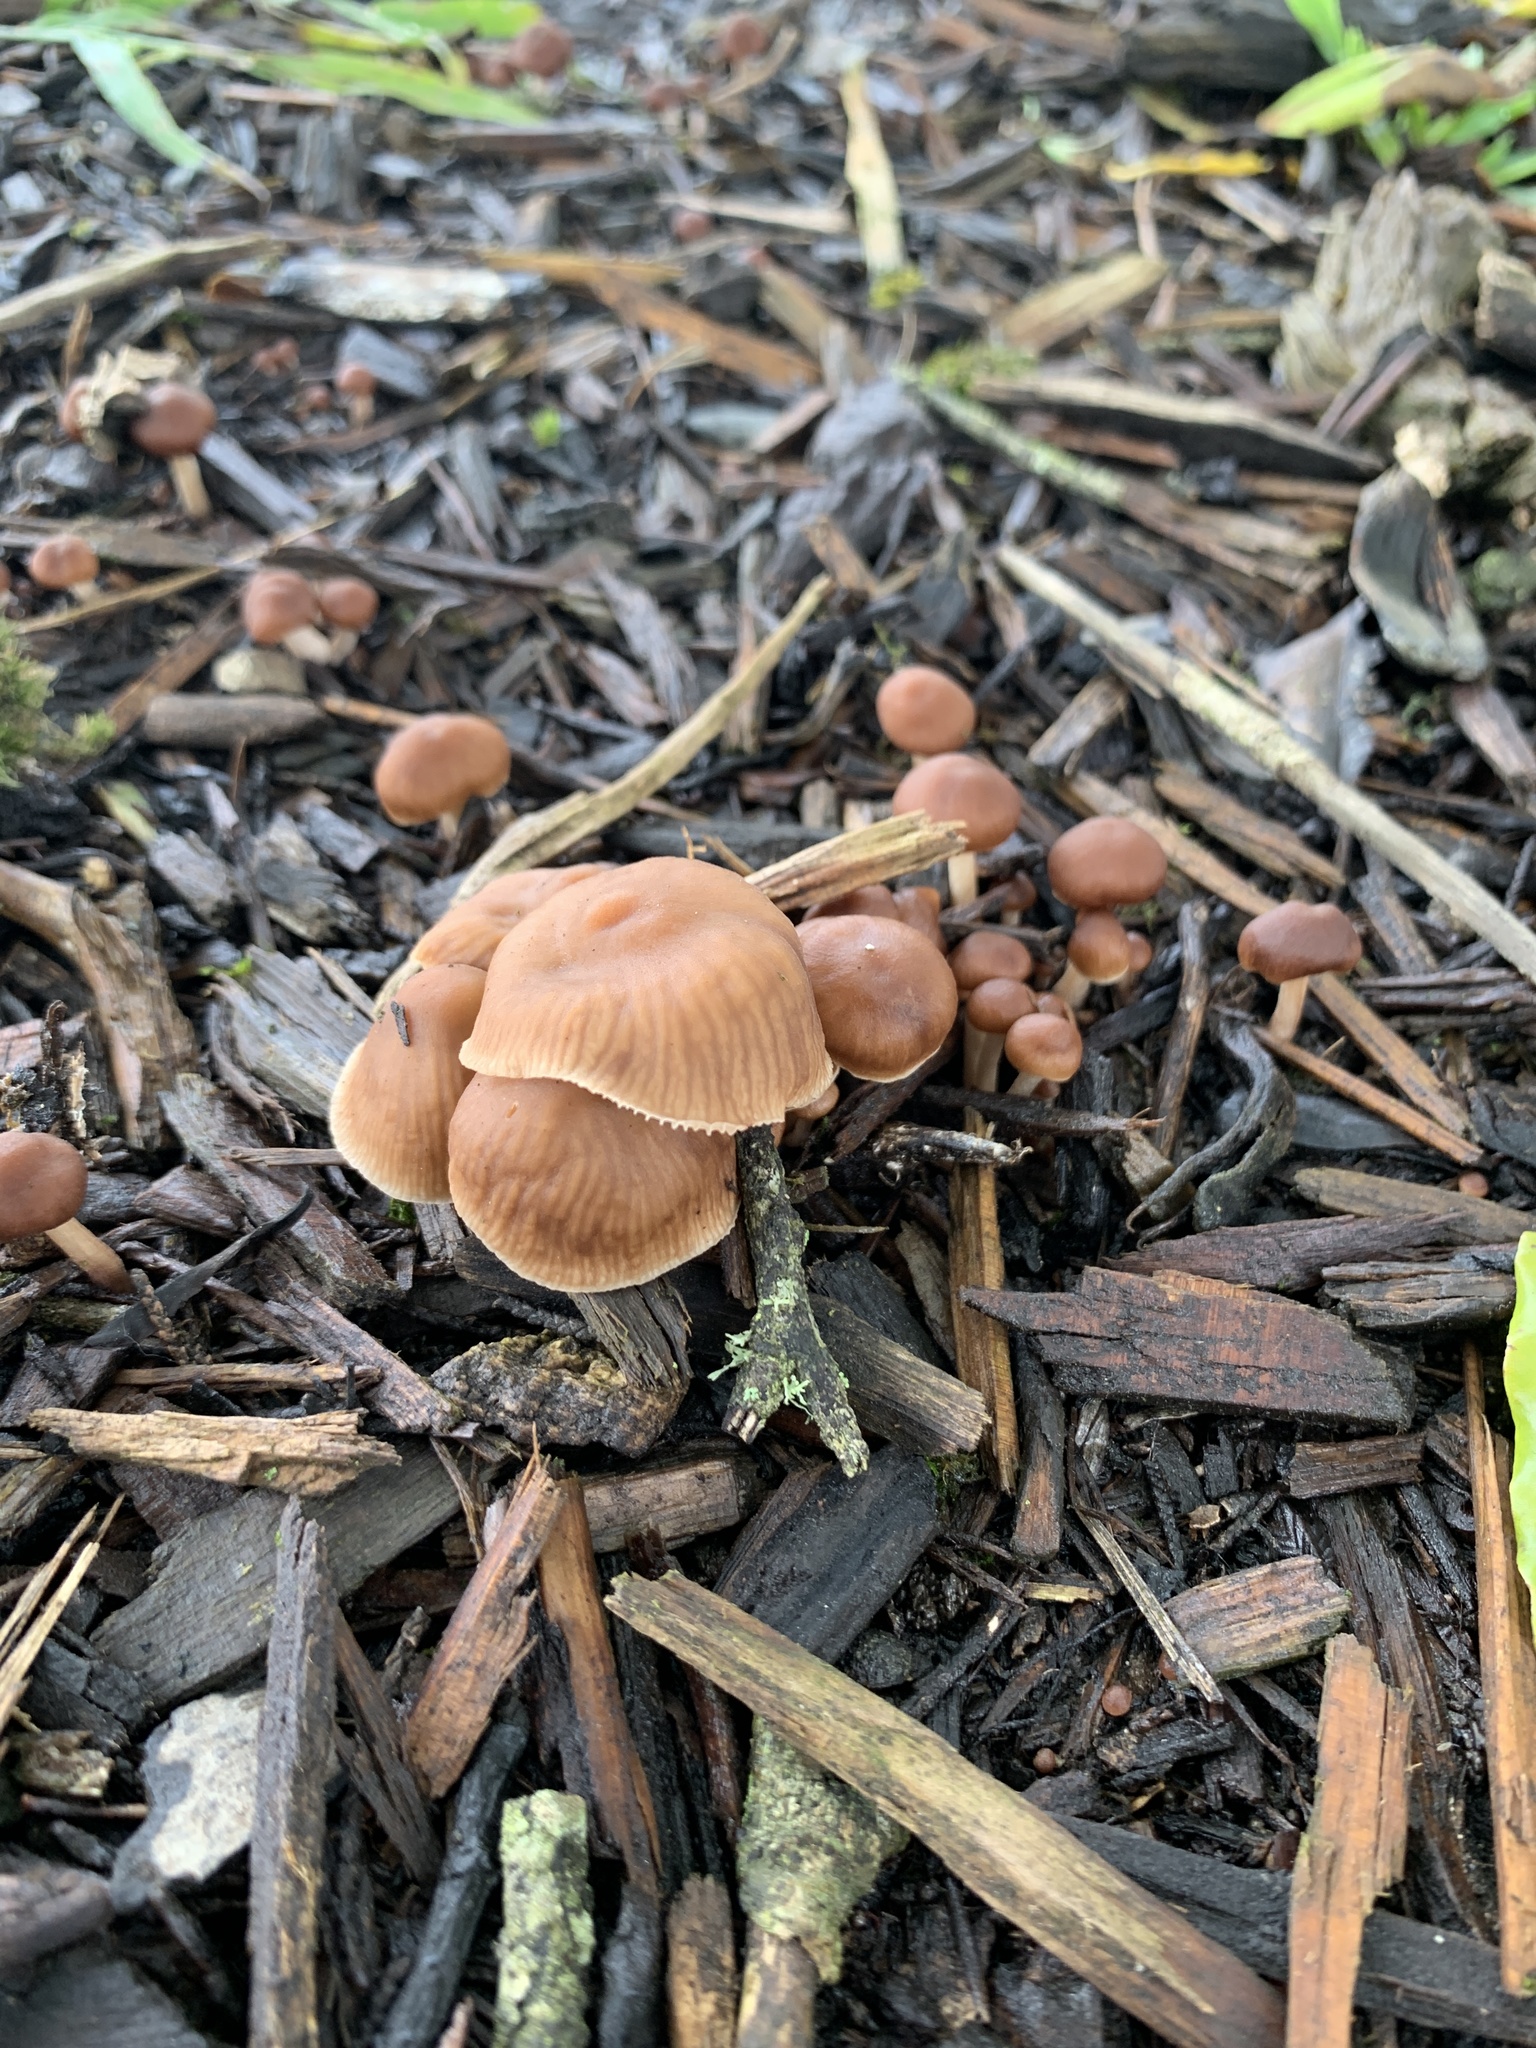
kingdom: Fungi
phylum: Basidiomycota
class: Agaricomycetes
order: Agaricales
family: Omphalotaceae
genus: Collybiopsis
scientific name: Collybiopsis subpruinosa
